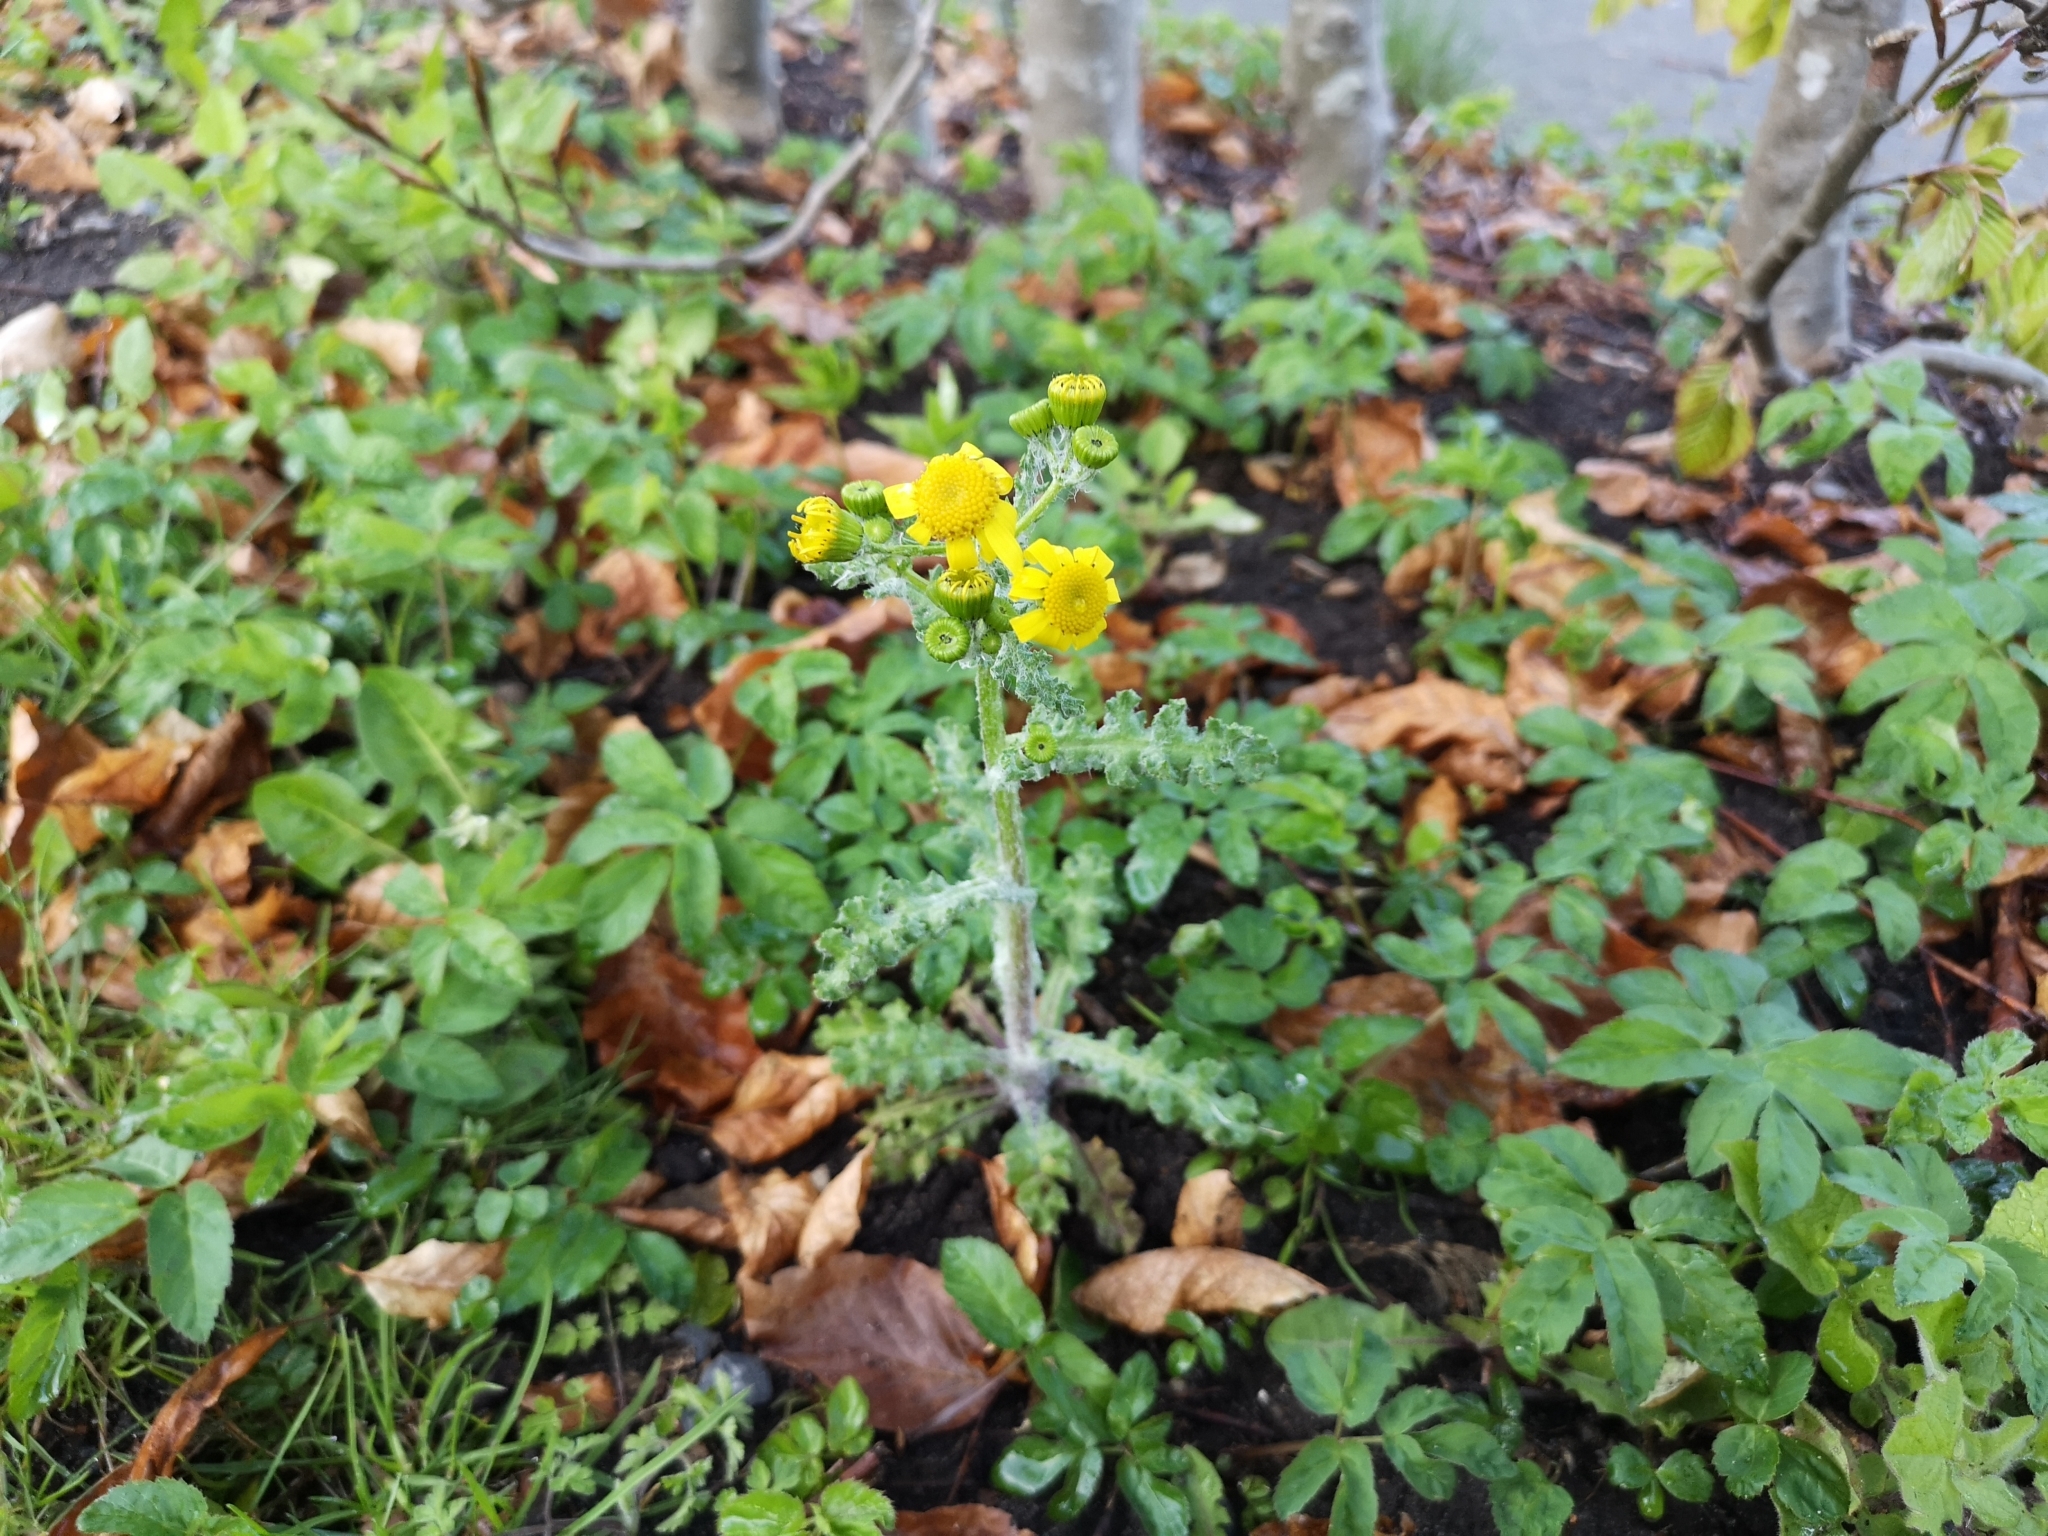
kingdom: Plantae
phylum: Tracheophyta
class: Magnoliopsida
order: Asterales
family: Asteraceae
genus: Senecio
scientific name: Senecio vernalis
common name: Eastern groundsel
